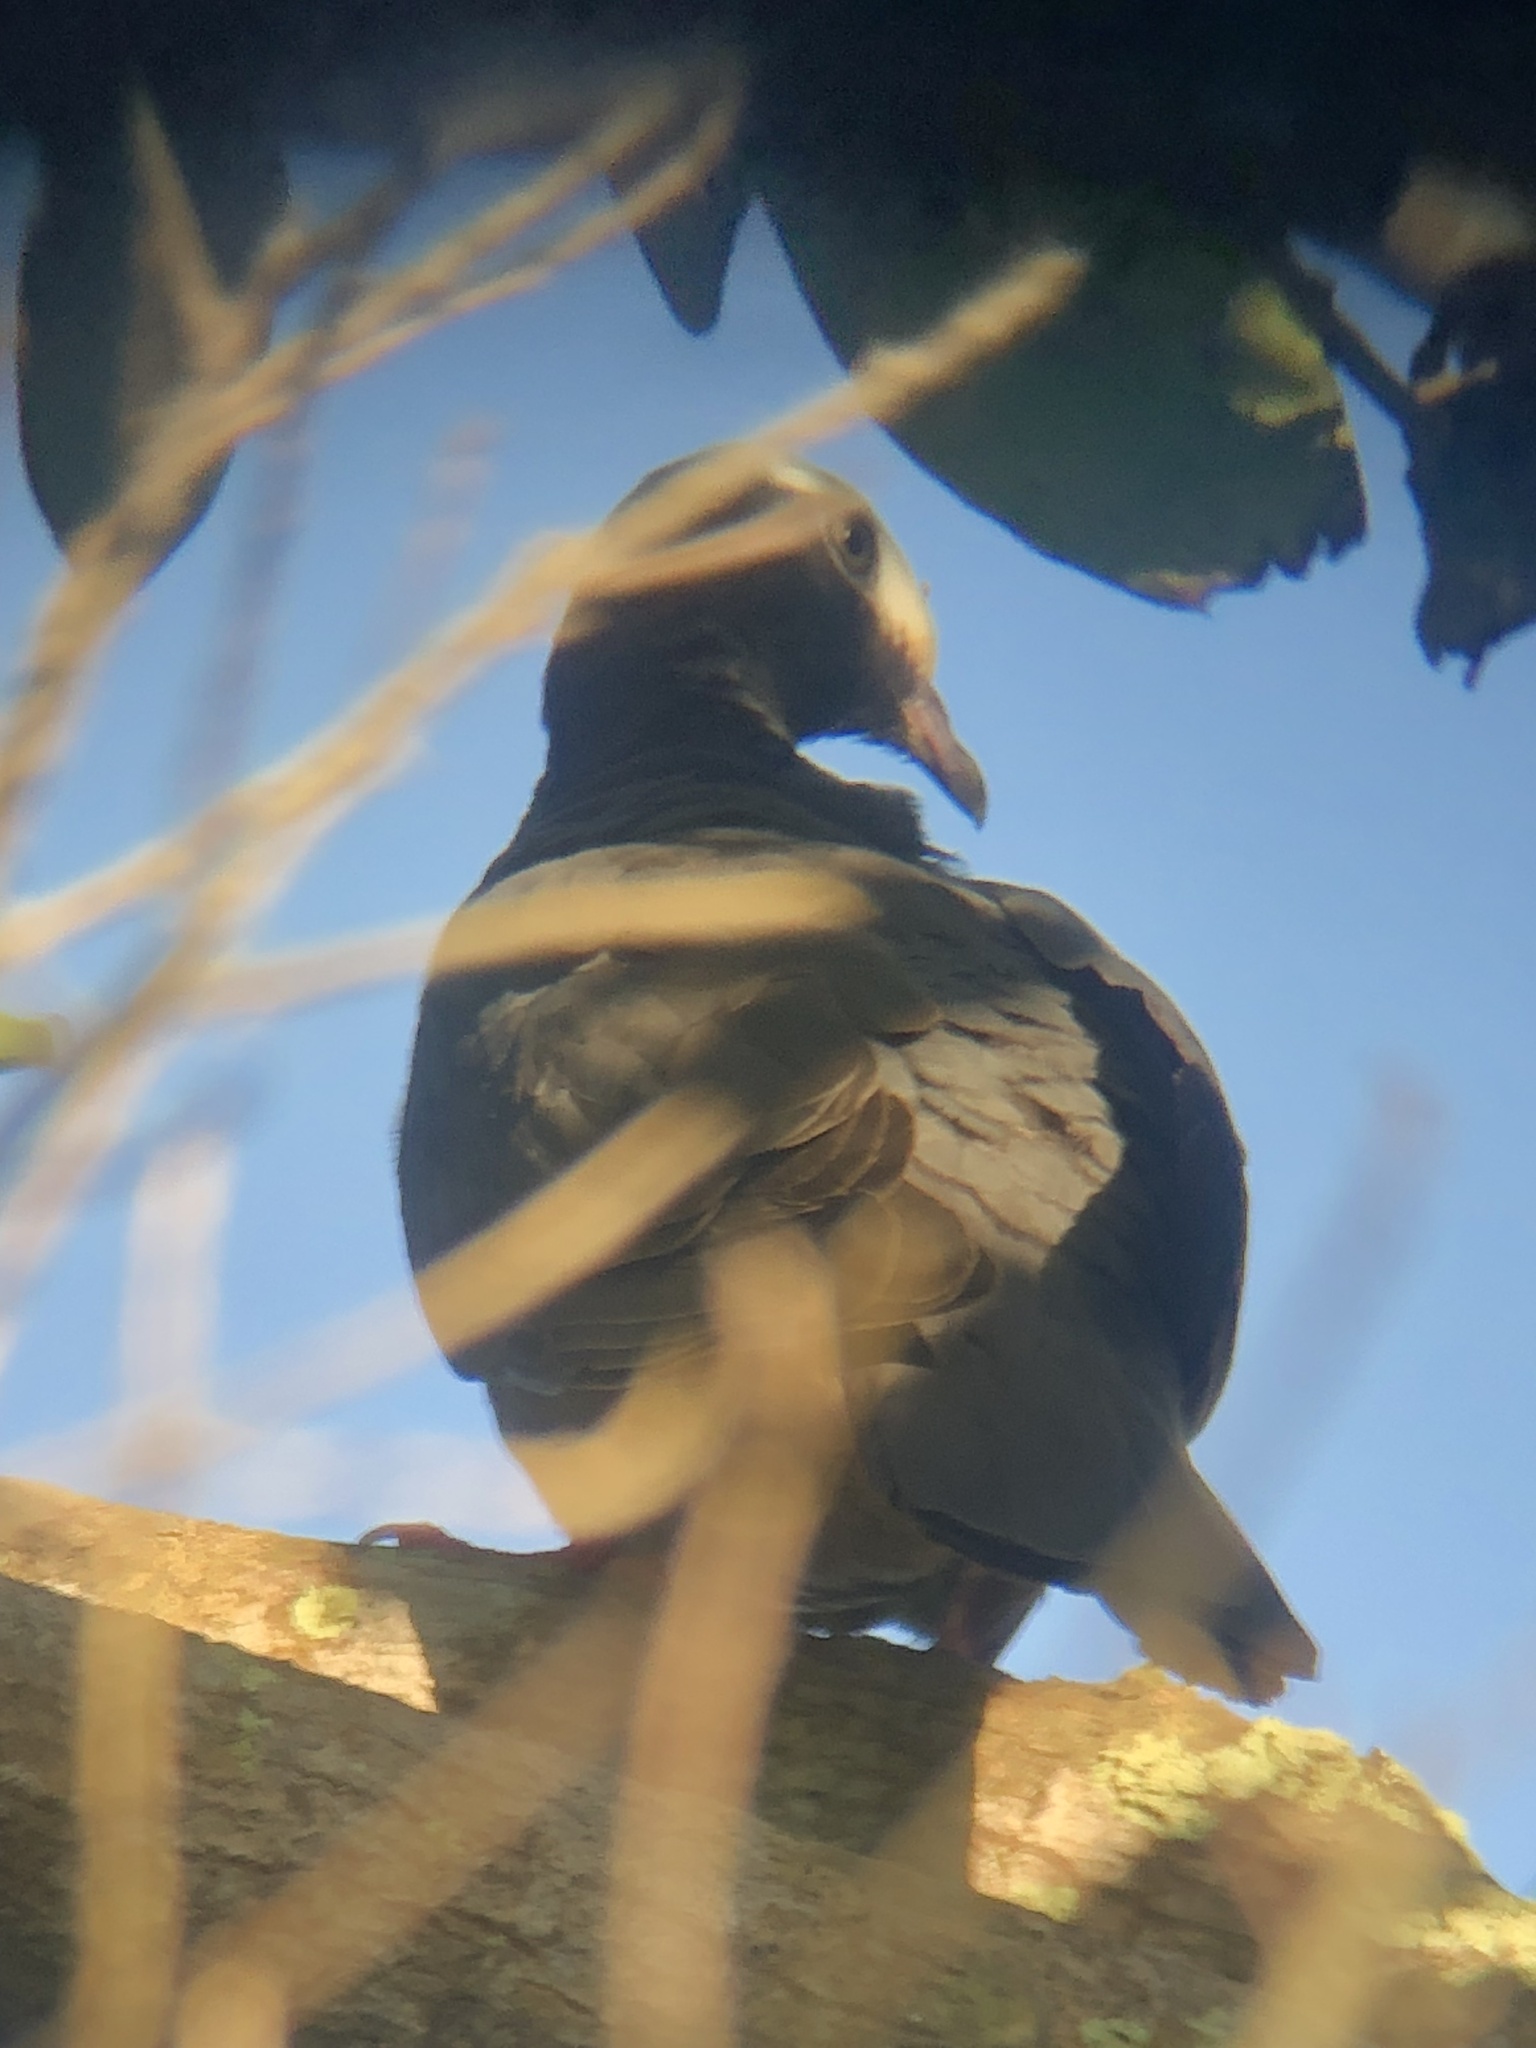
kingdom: Animalia
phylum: Chordata
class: Aves
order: Columbiformes
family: Columbidae
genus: Patagioenas
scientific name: Patagioenas leucocephala
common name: White-crowned pigeon
